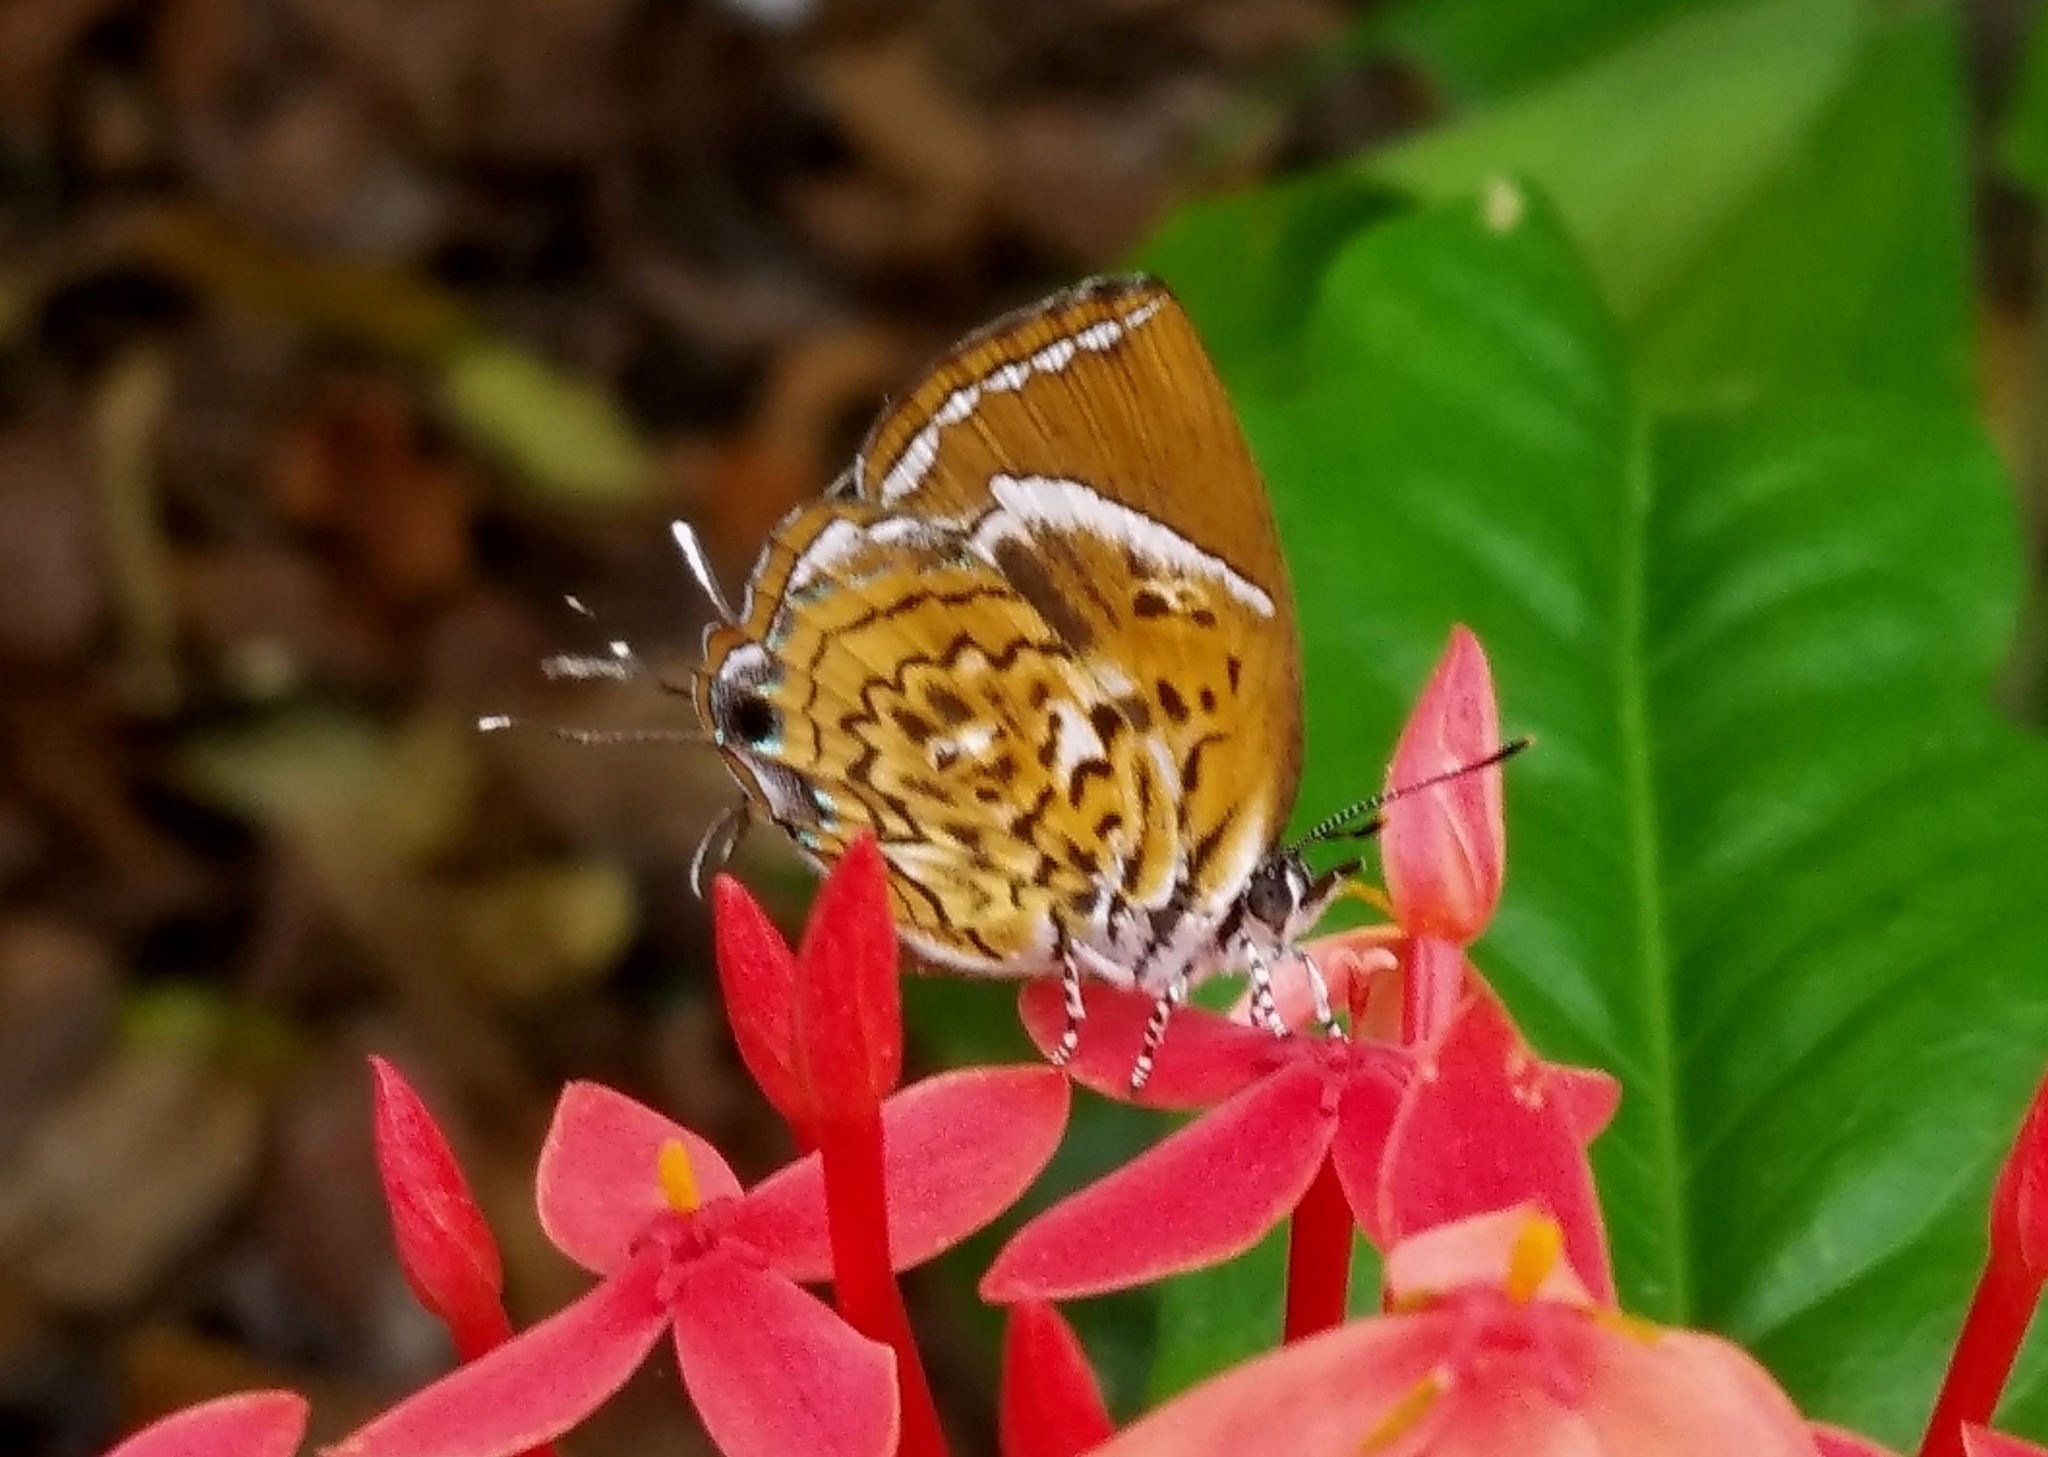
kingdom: Animalia
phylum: Arthropoda
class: Insecta
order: Lepidoptera
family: Lycaenidae
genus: Rathinda
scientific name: Rathinda amor
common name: Monkey puzzle
